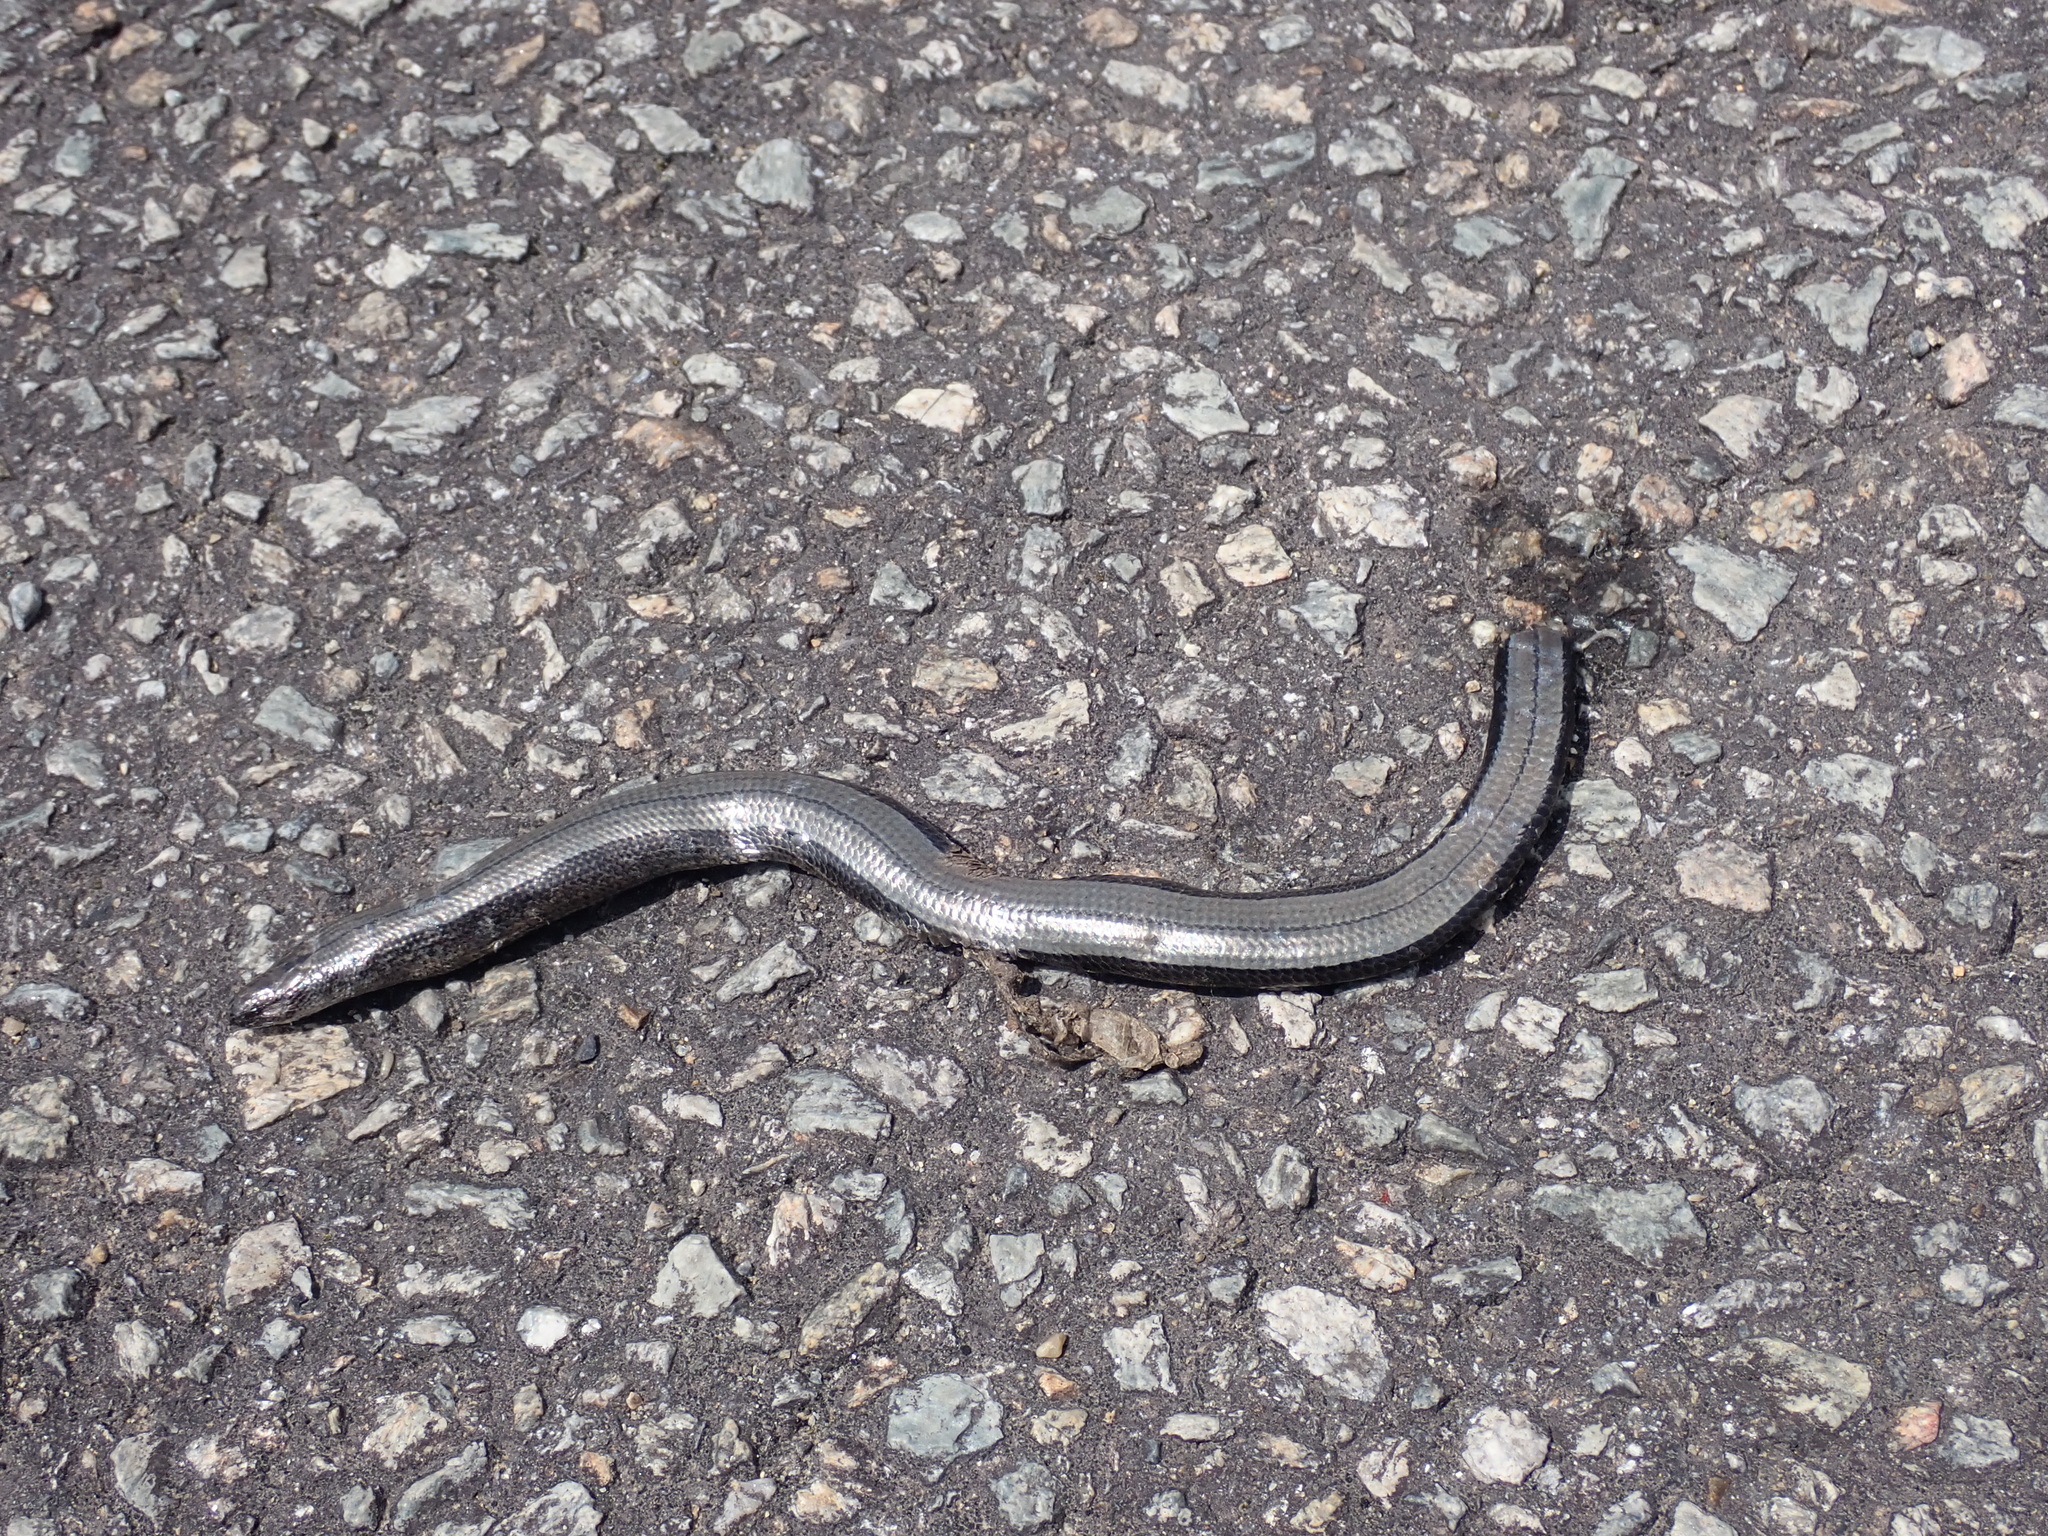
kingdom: Animalia
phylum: Chordata
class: Squamata
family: Anguidae
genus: Anguis
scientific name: Anguis fragilis
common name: Slow worm
